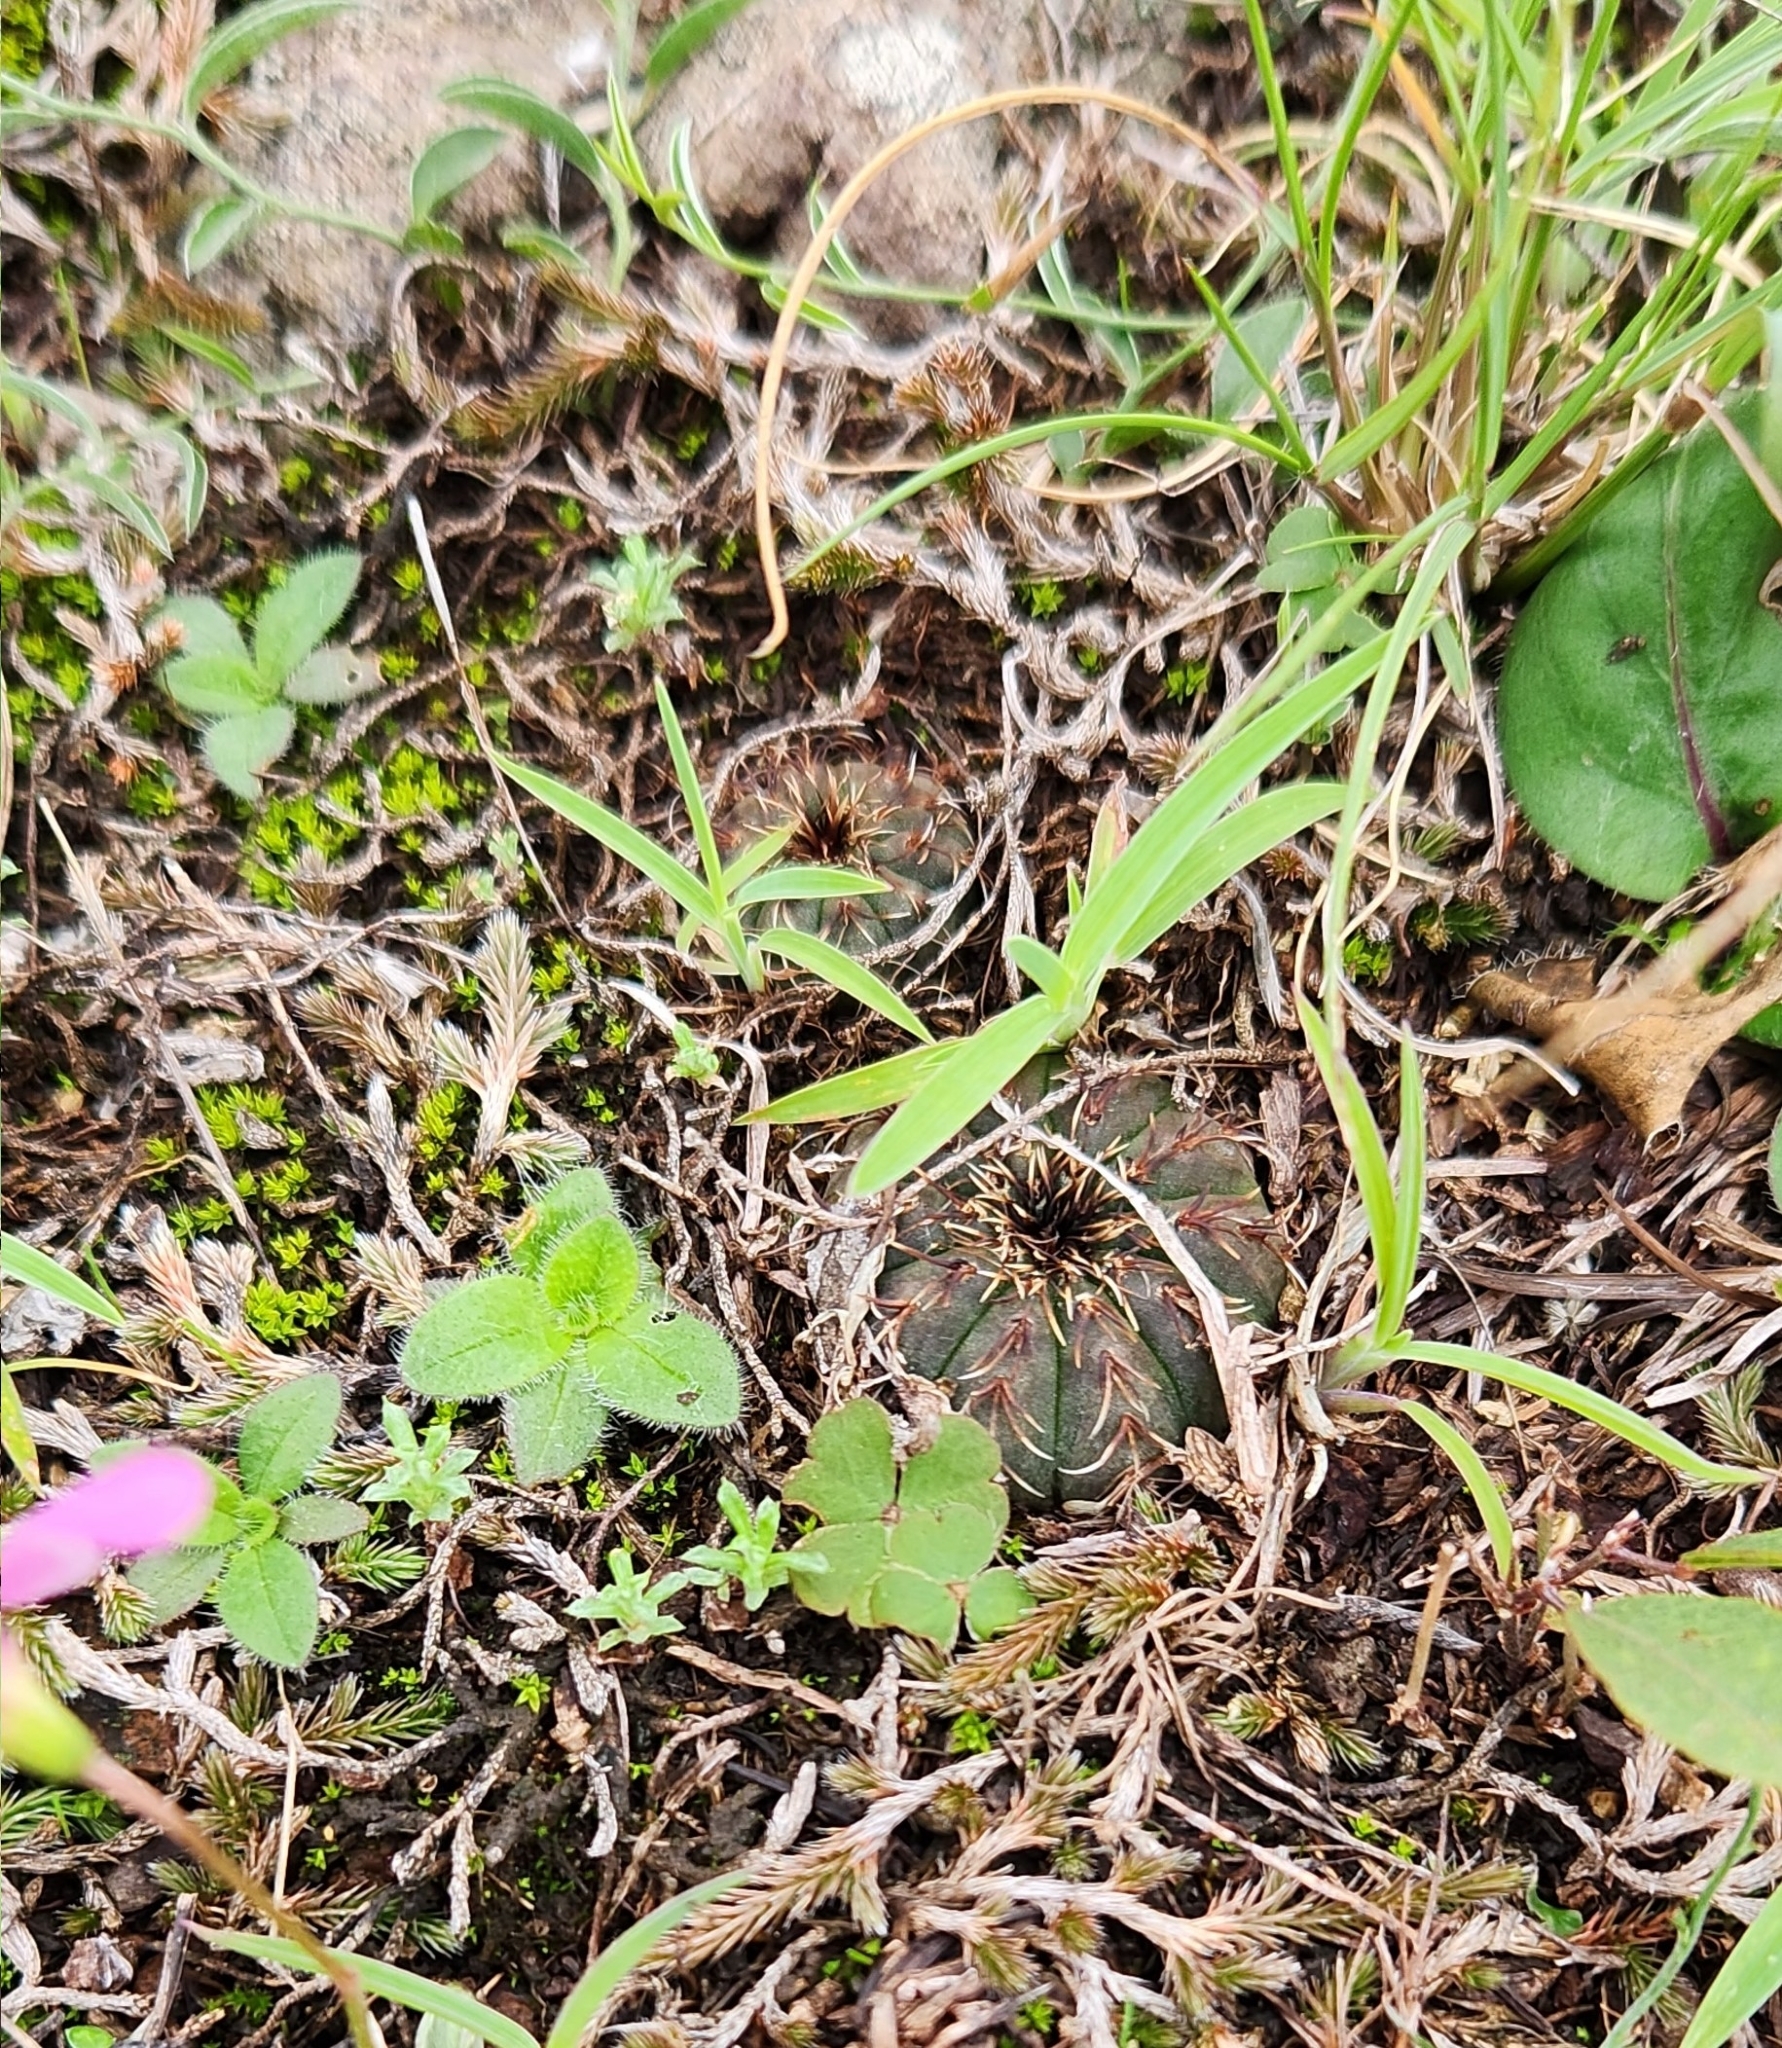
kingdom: Plantae
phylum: Tracheophyta
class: Magnoliopsida
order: Caryophyllales
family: Cactaceae
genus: Frailea
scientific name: Frailea castanea
